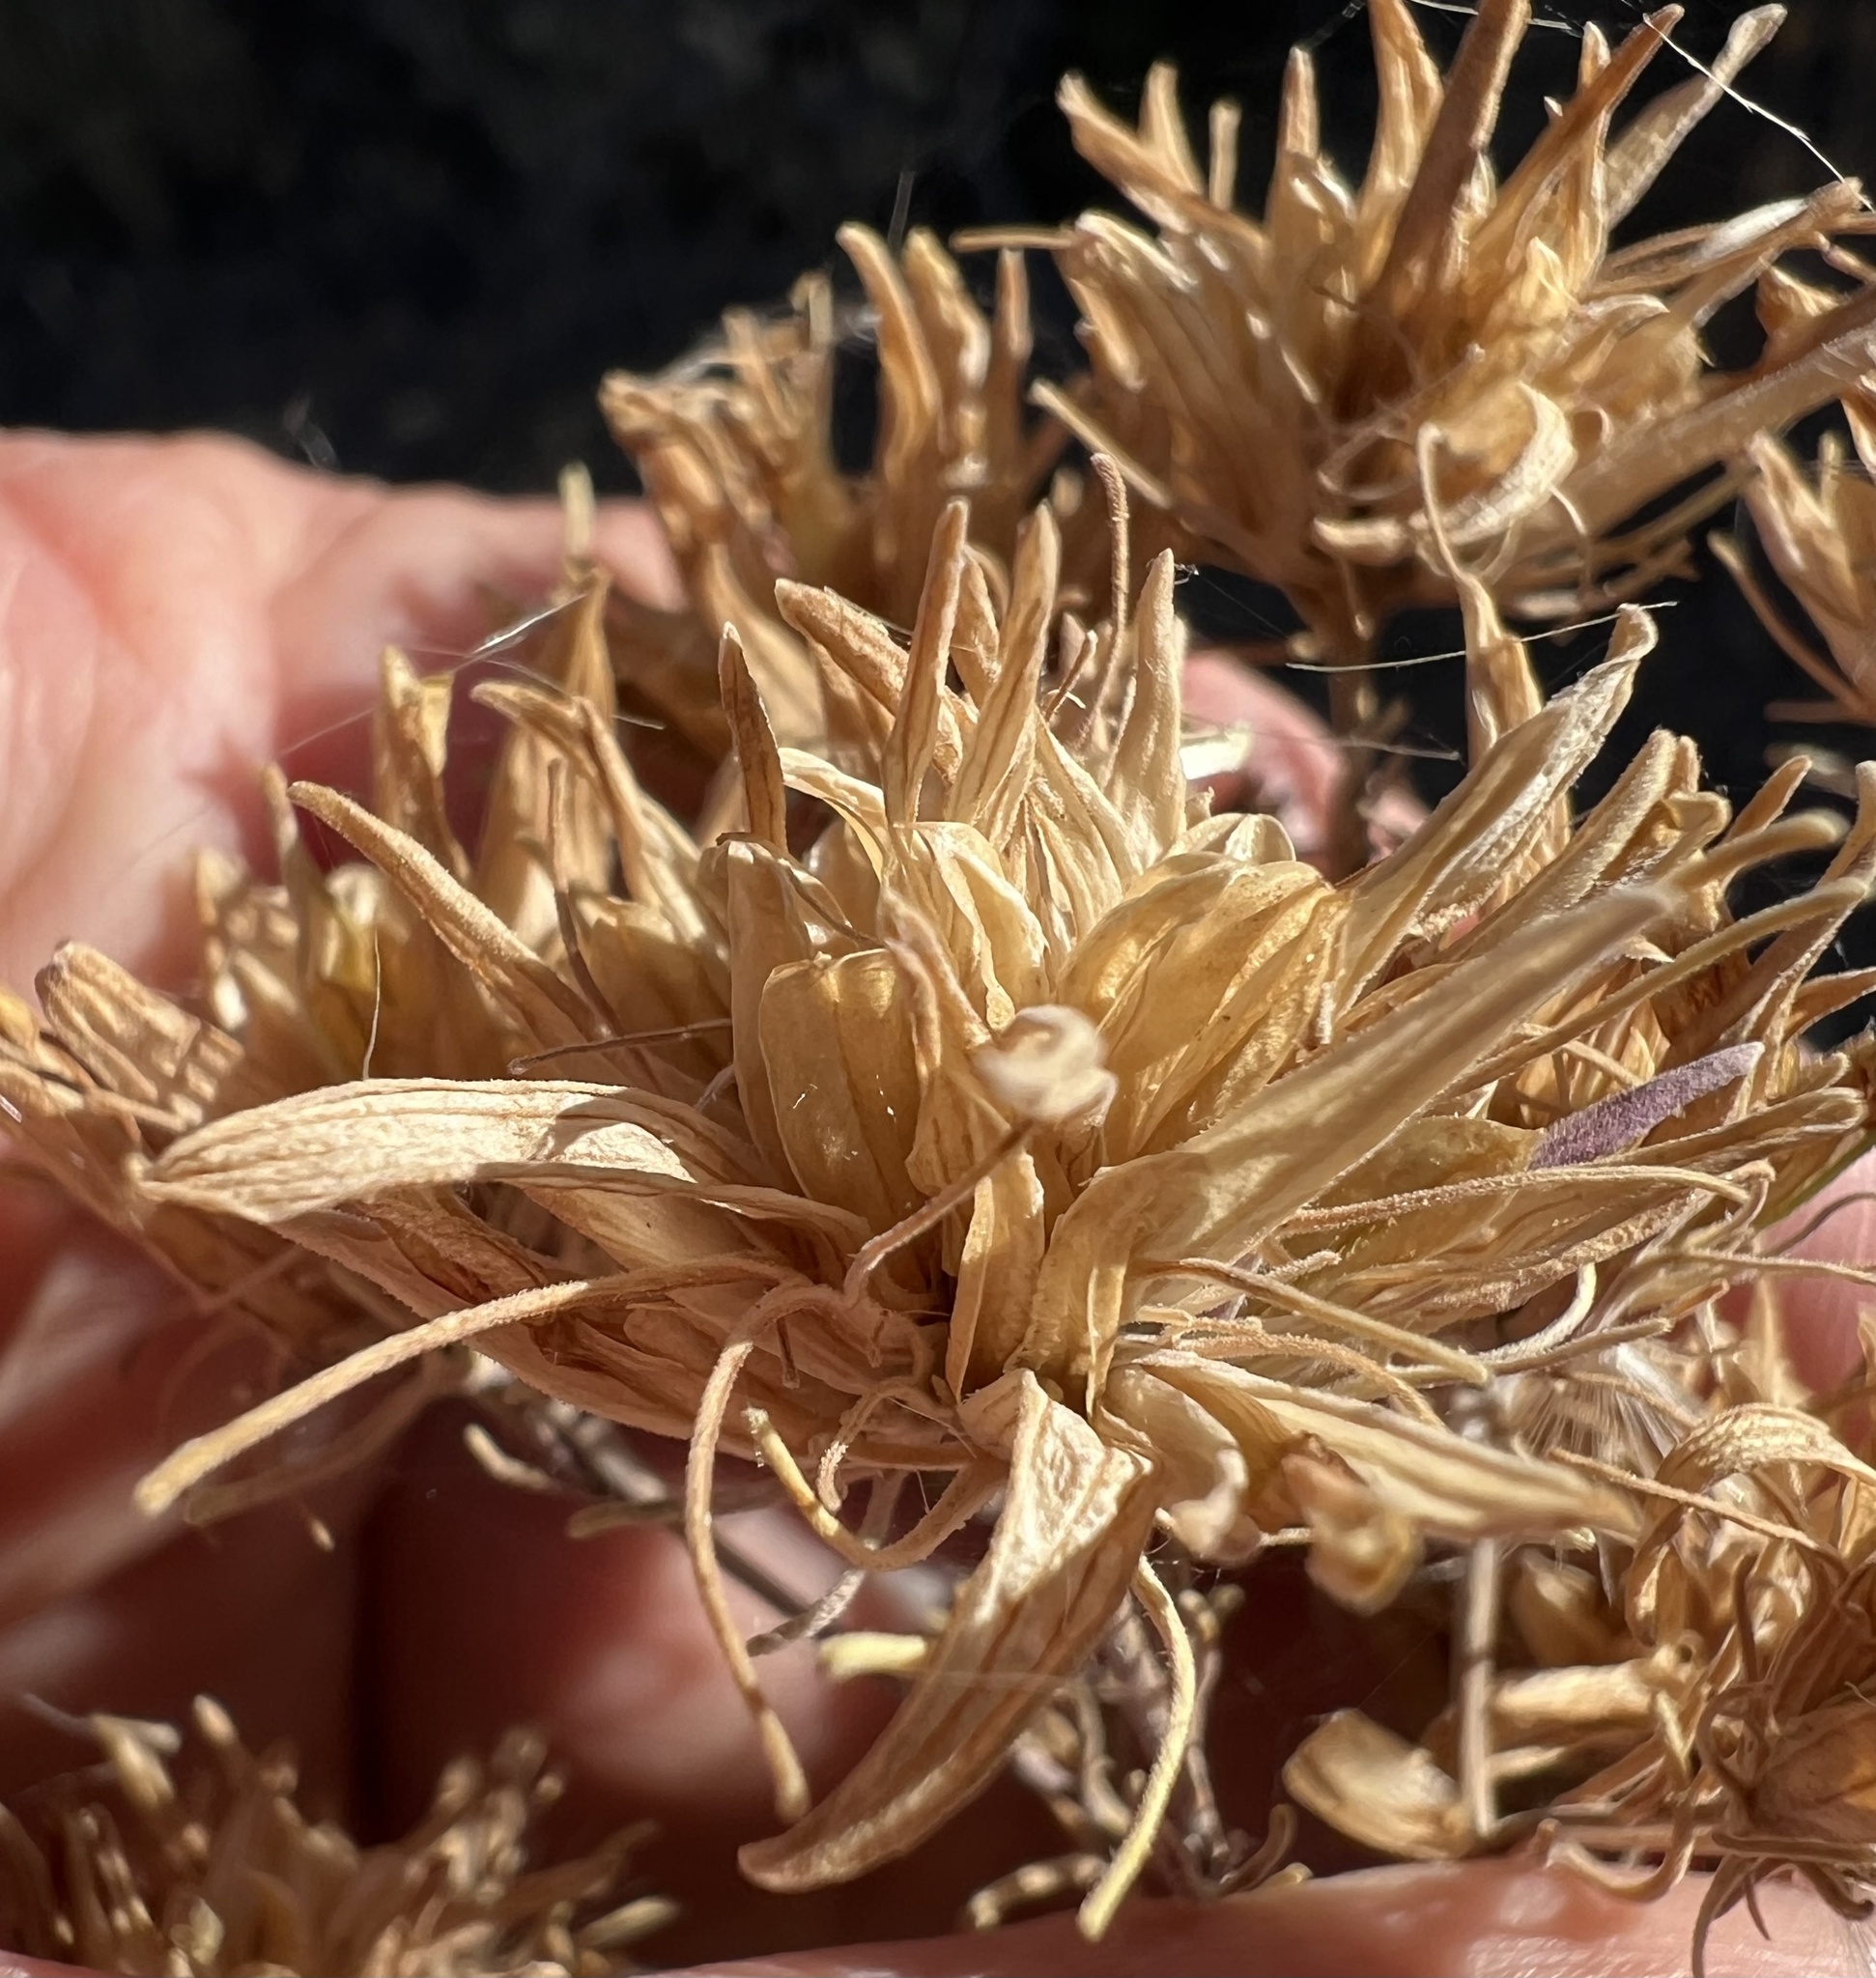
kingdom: Plantae
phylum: Tracheophyta
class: Magnoliopsida
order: Lamiales
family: Orobanchaceae
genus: Cordylanthus
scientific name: Cordylanthus ramosus
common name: Much-branched bird's-beak
